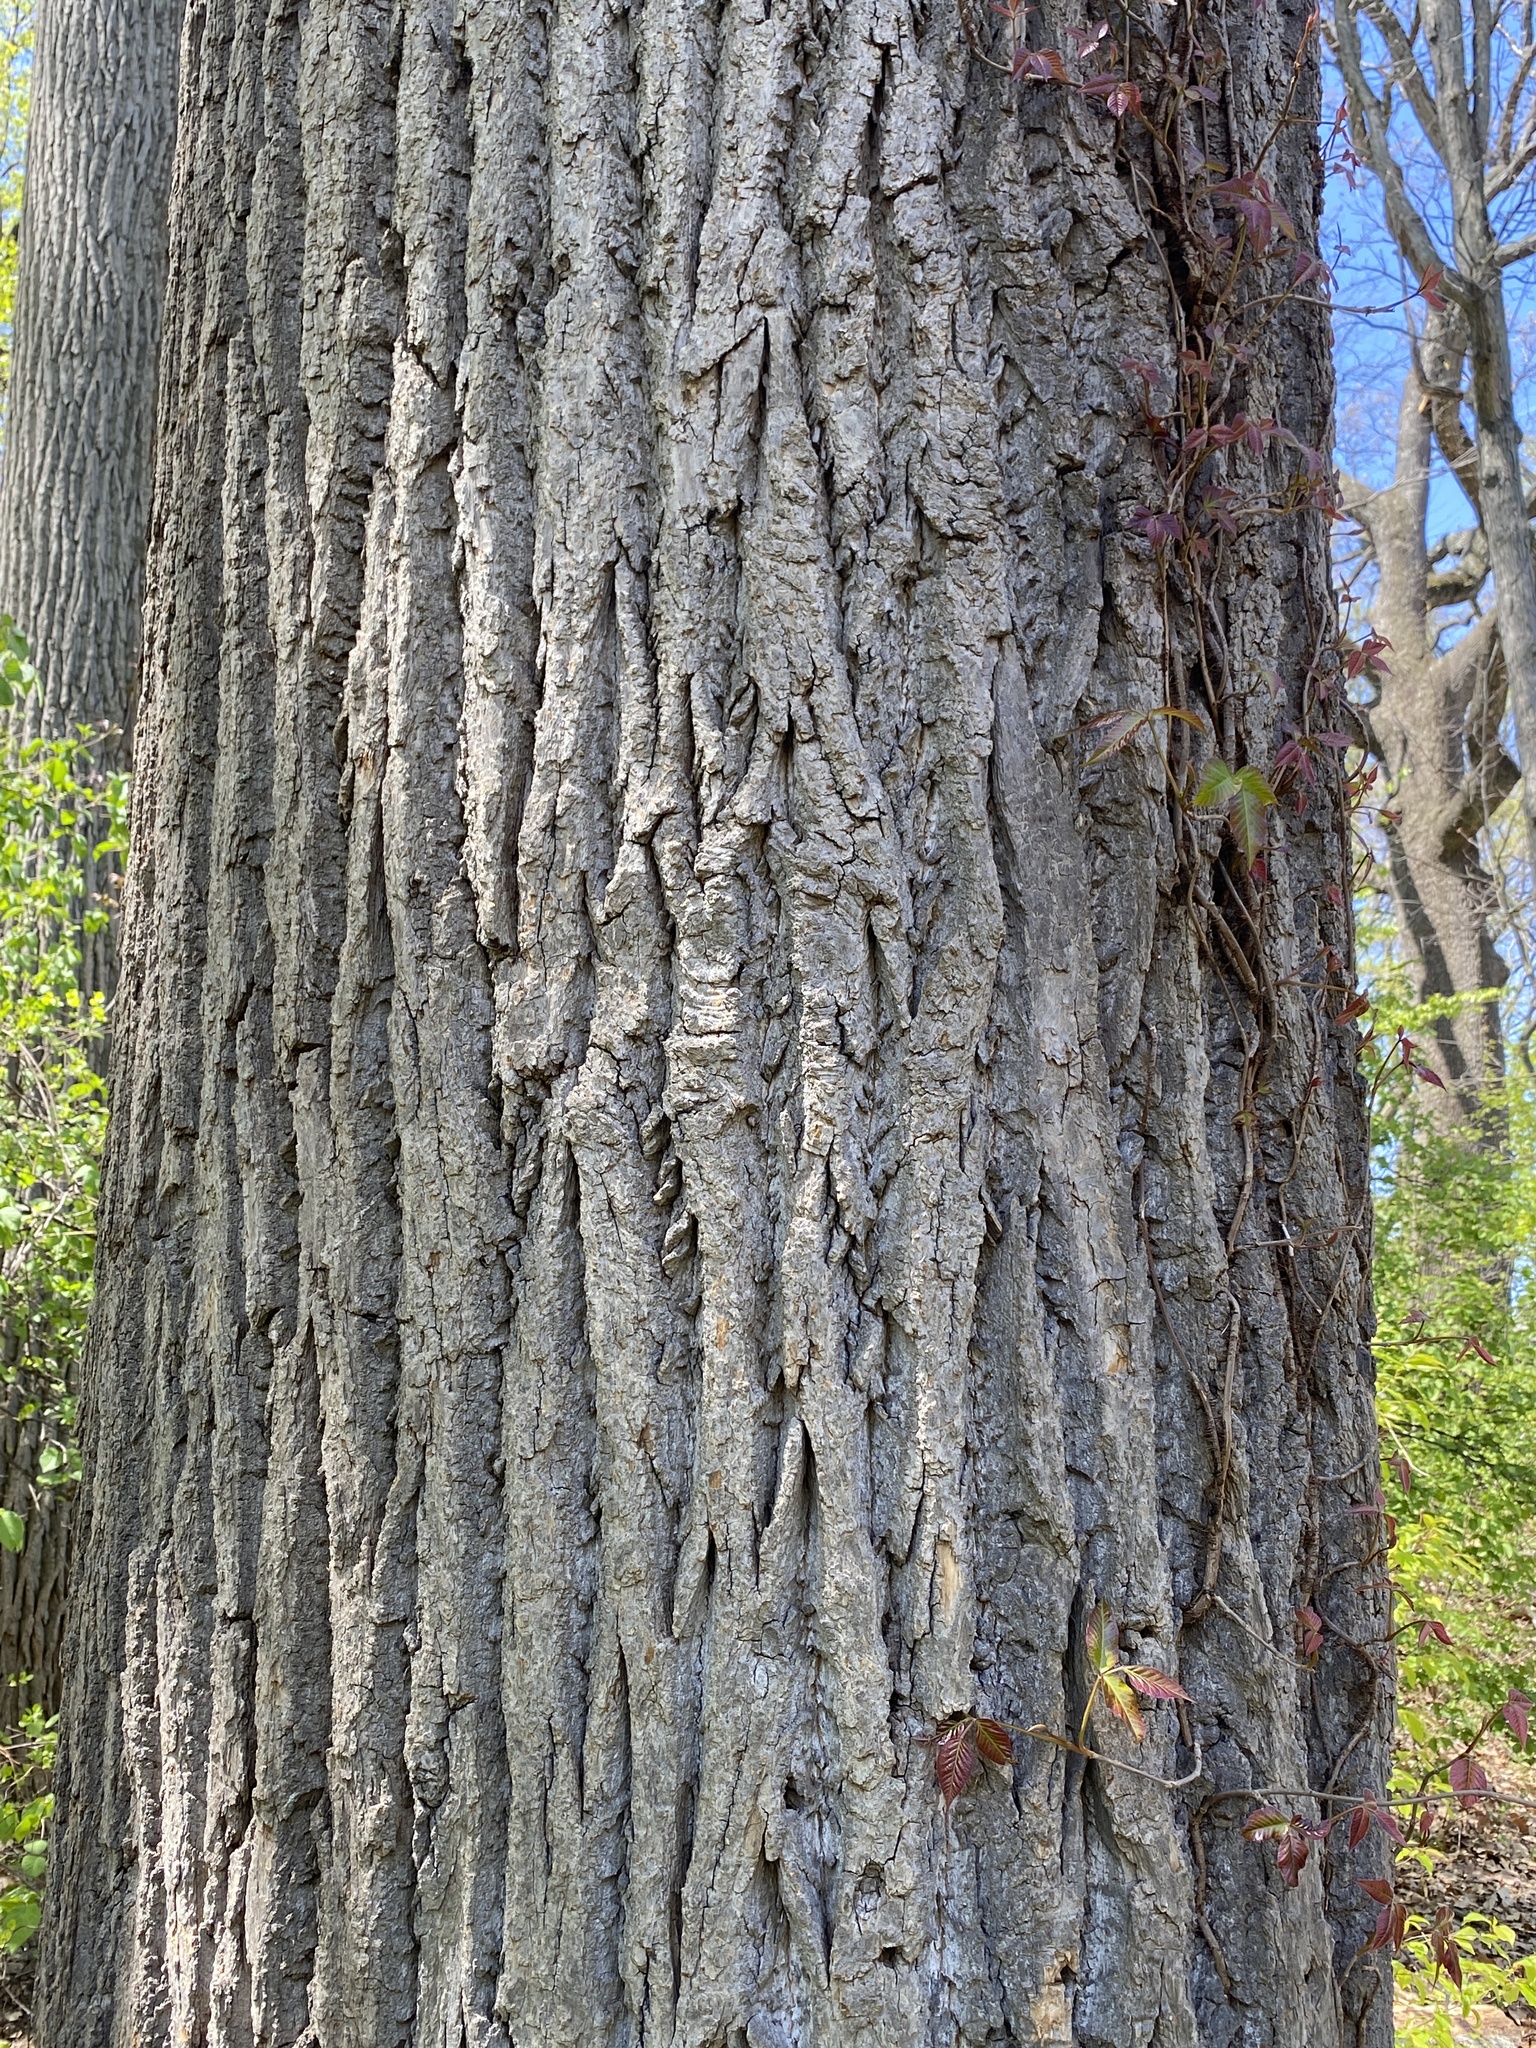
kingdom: Plantae
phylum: Tracheophyta
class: Magnoliopsida
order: Lamiales
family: Oleaceae
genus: Fraxinus
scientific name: Fraxinus americana
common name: White ash
